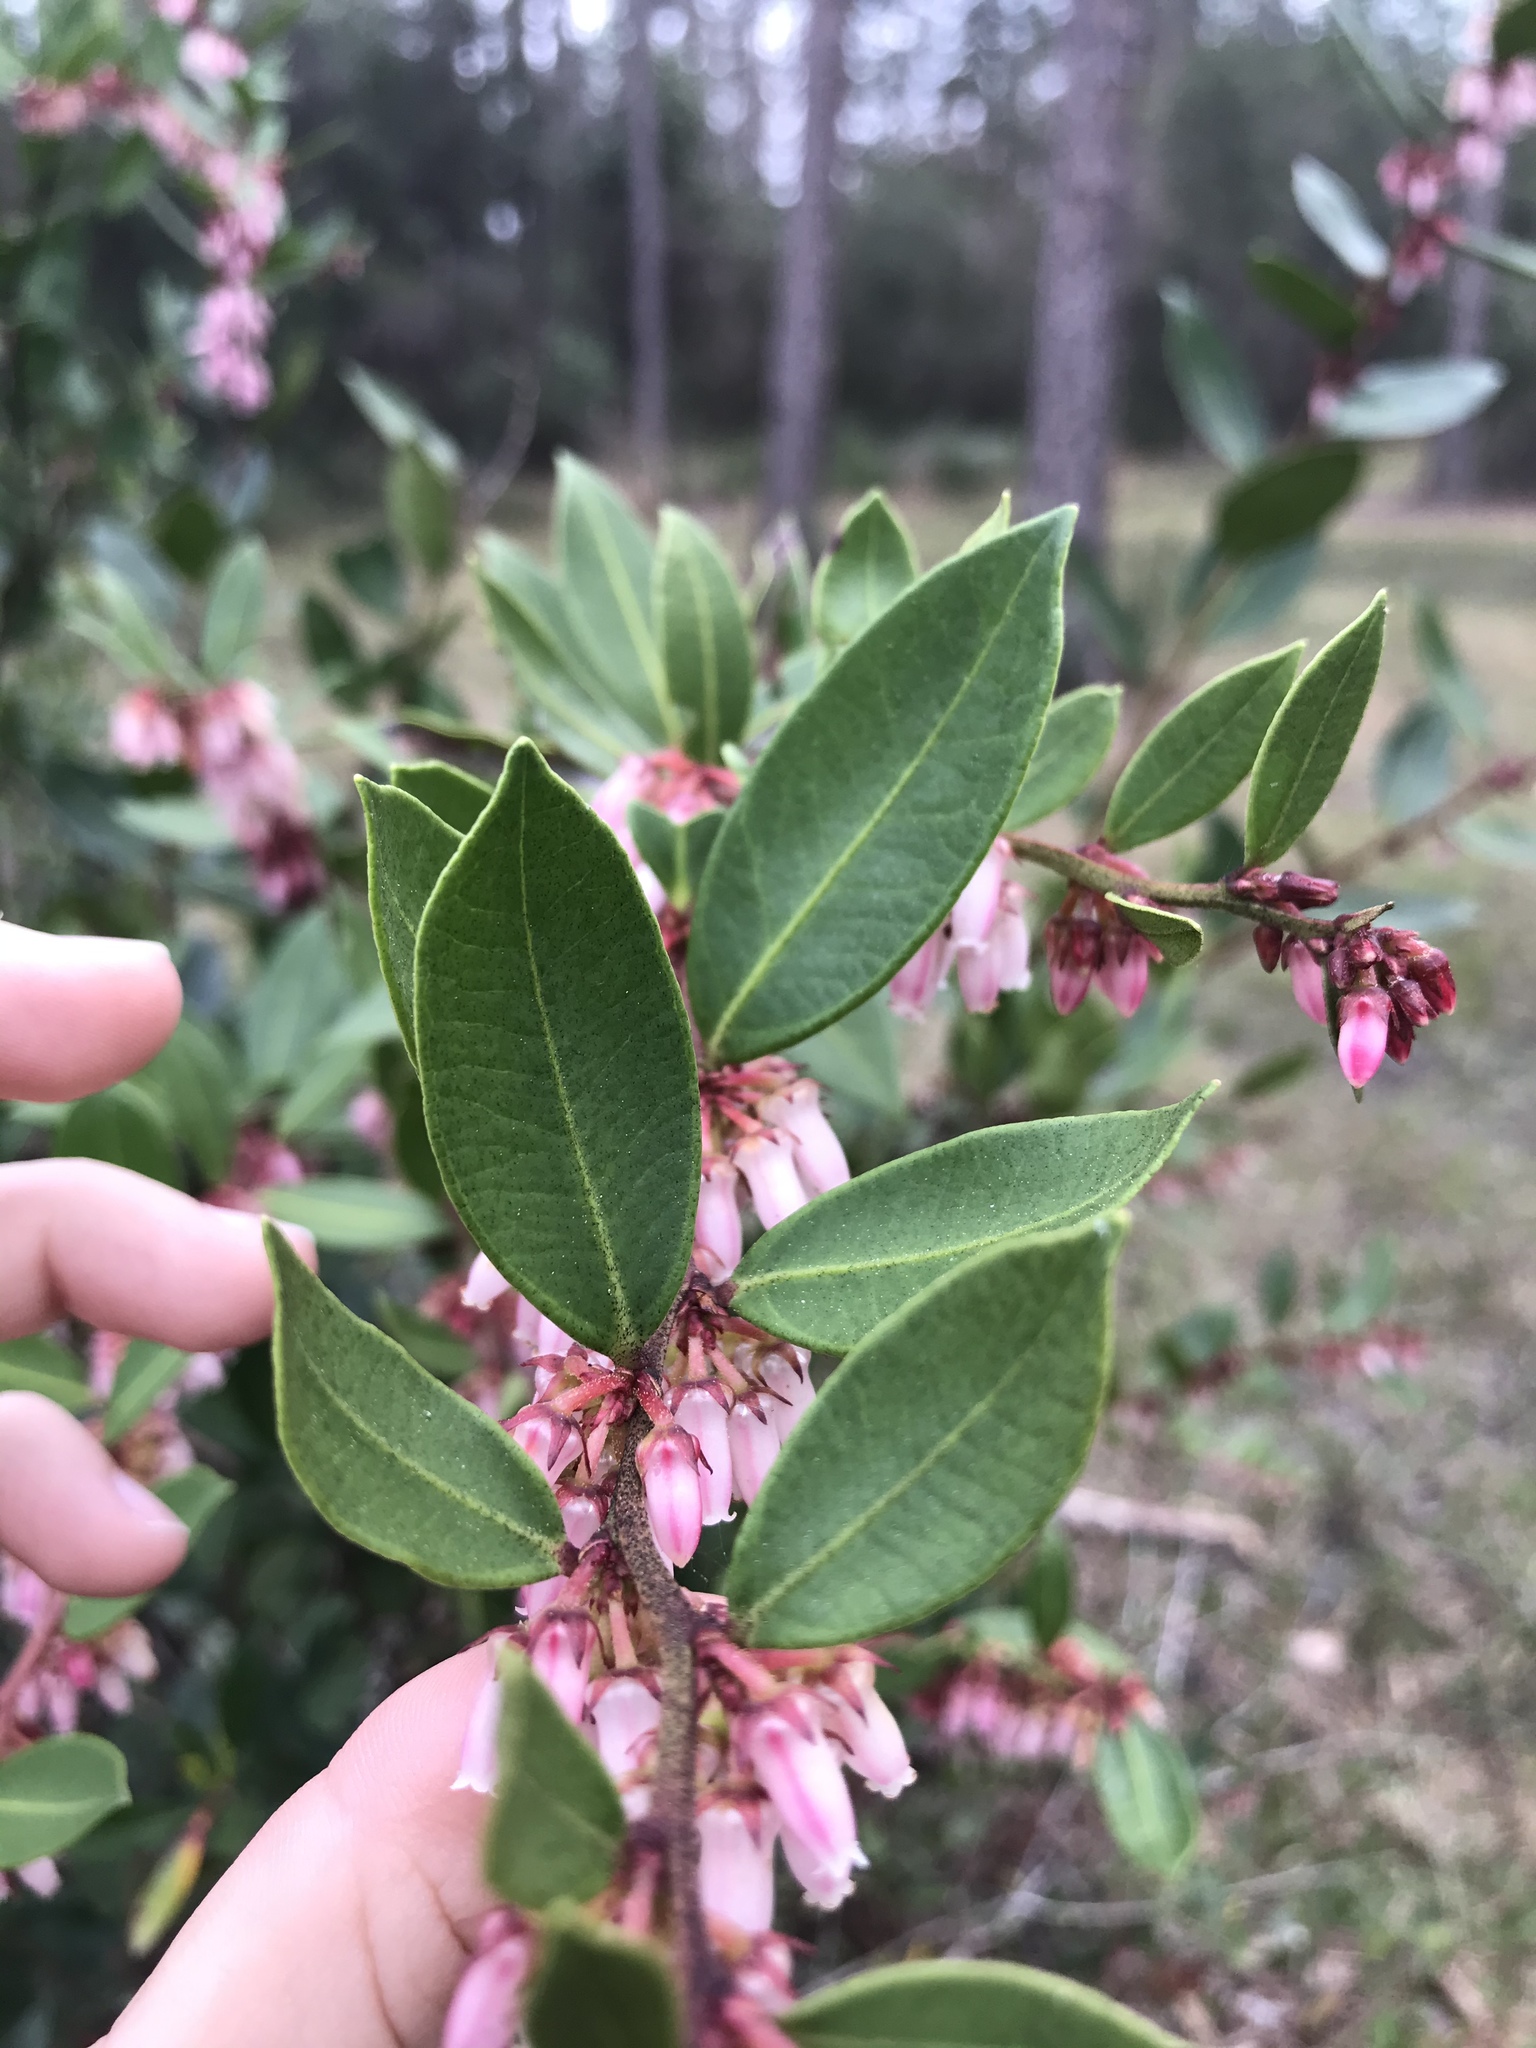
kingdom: Plantae
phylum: Tracheophyta
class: Magnoliopsida
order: Ericales
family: Ericaceae
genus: Lyonia
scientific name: Lyonia lucida
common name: Fetterbush
